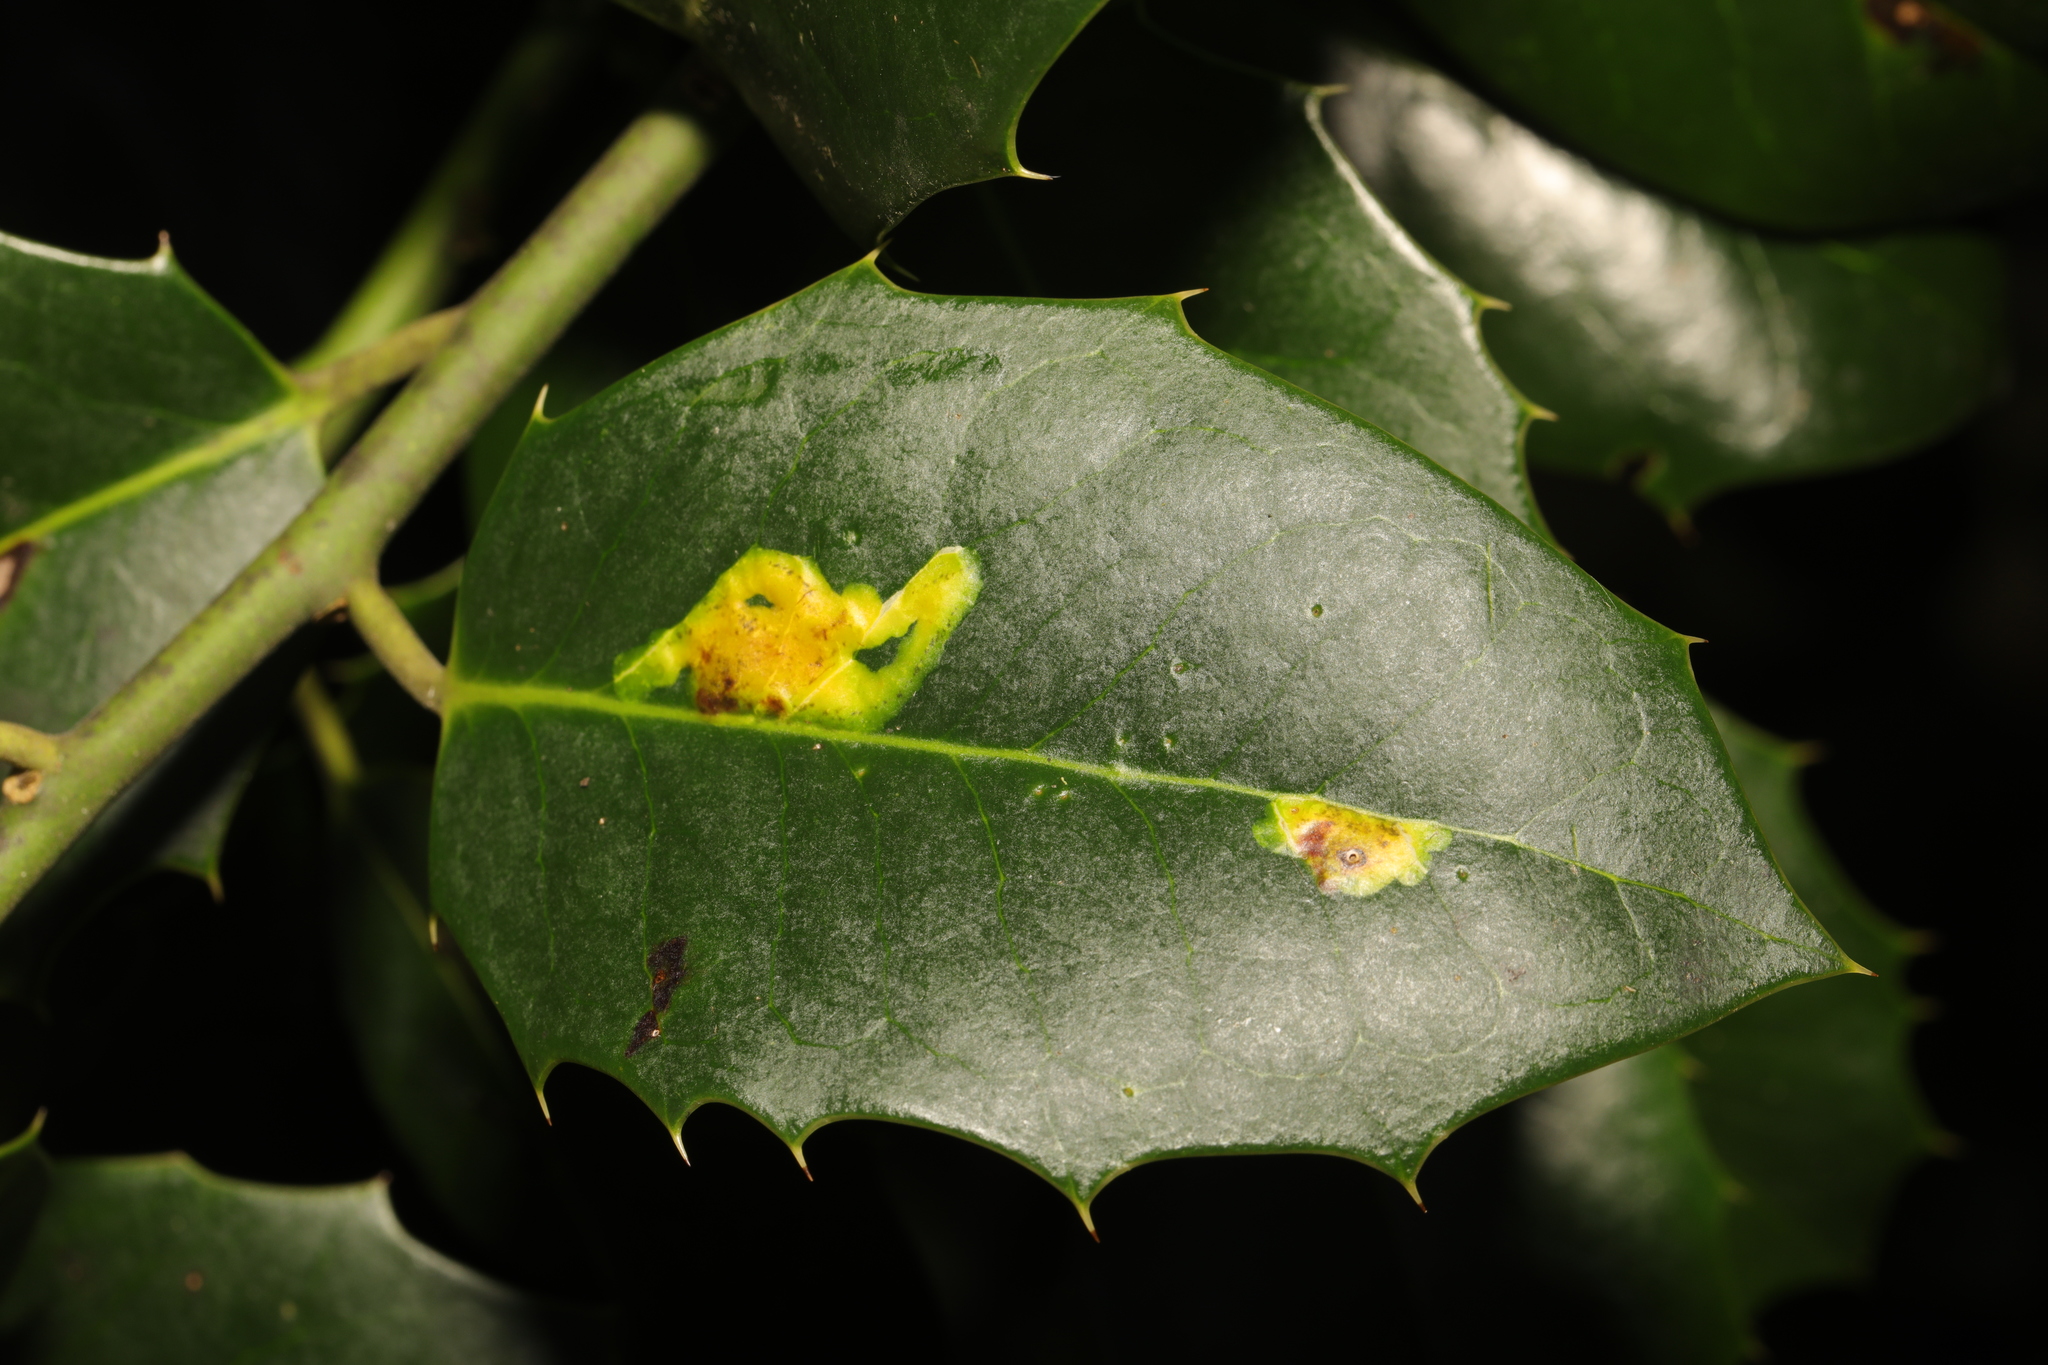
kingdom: Animalia
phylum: Arthropoda
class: Insecta
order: Diptera
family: Agromyzidae
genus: Phytomyza
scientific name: Phytomyza ilicis
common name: Holly leafminer
